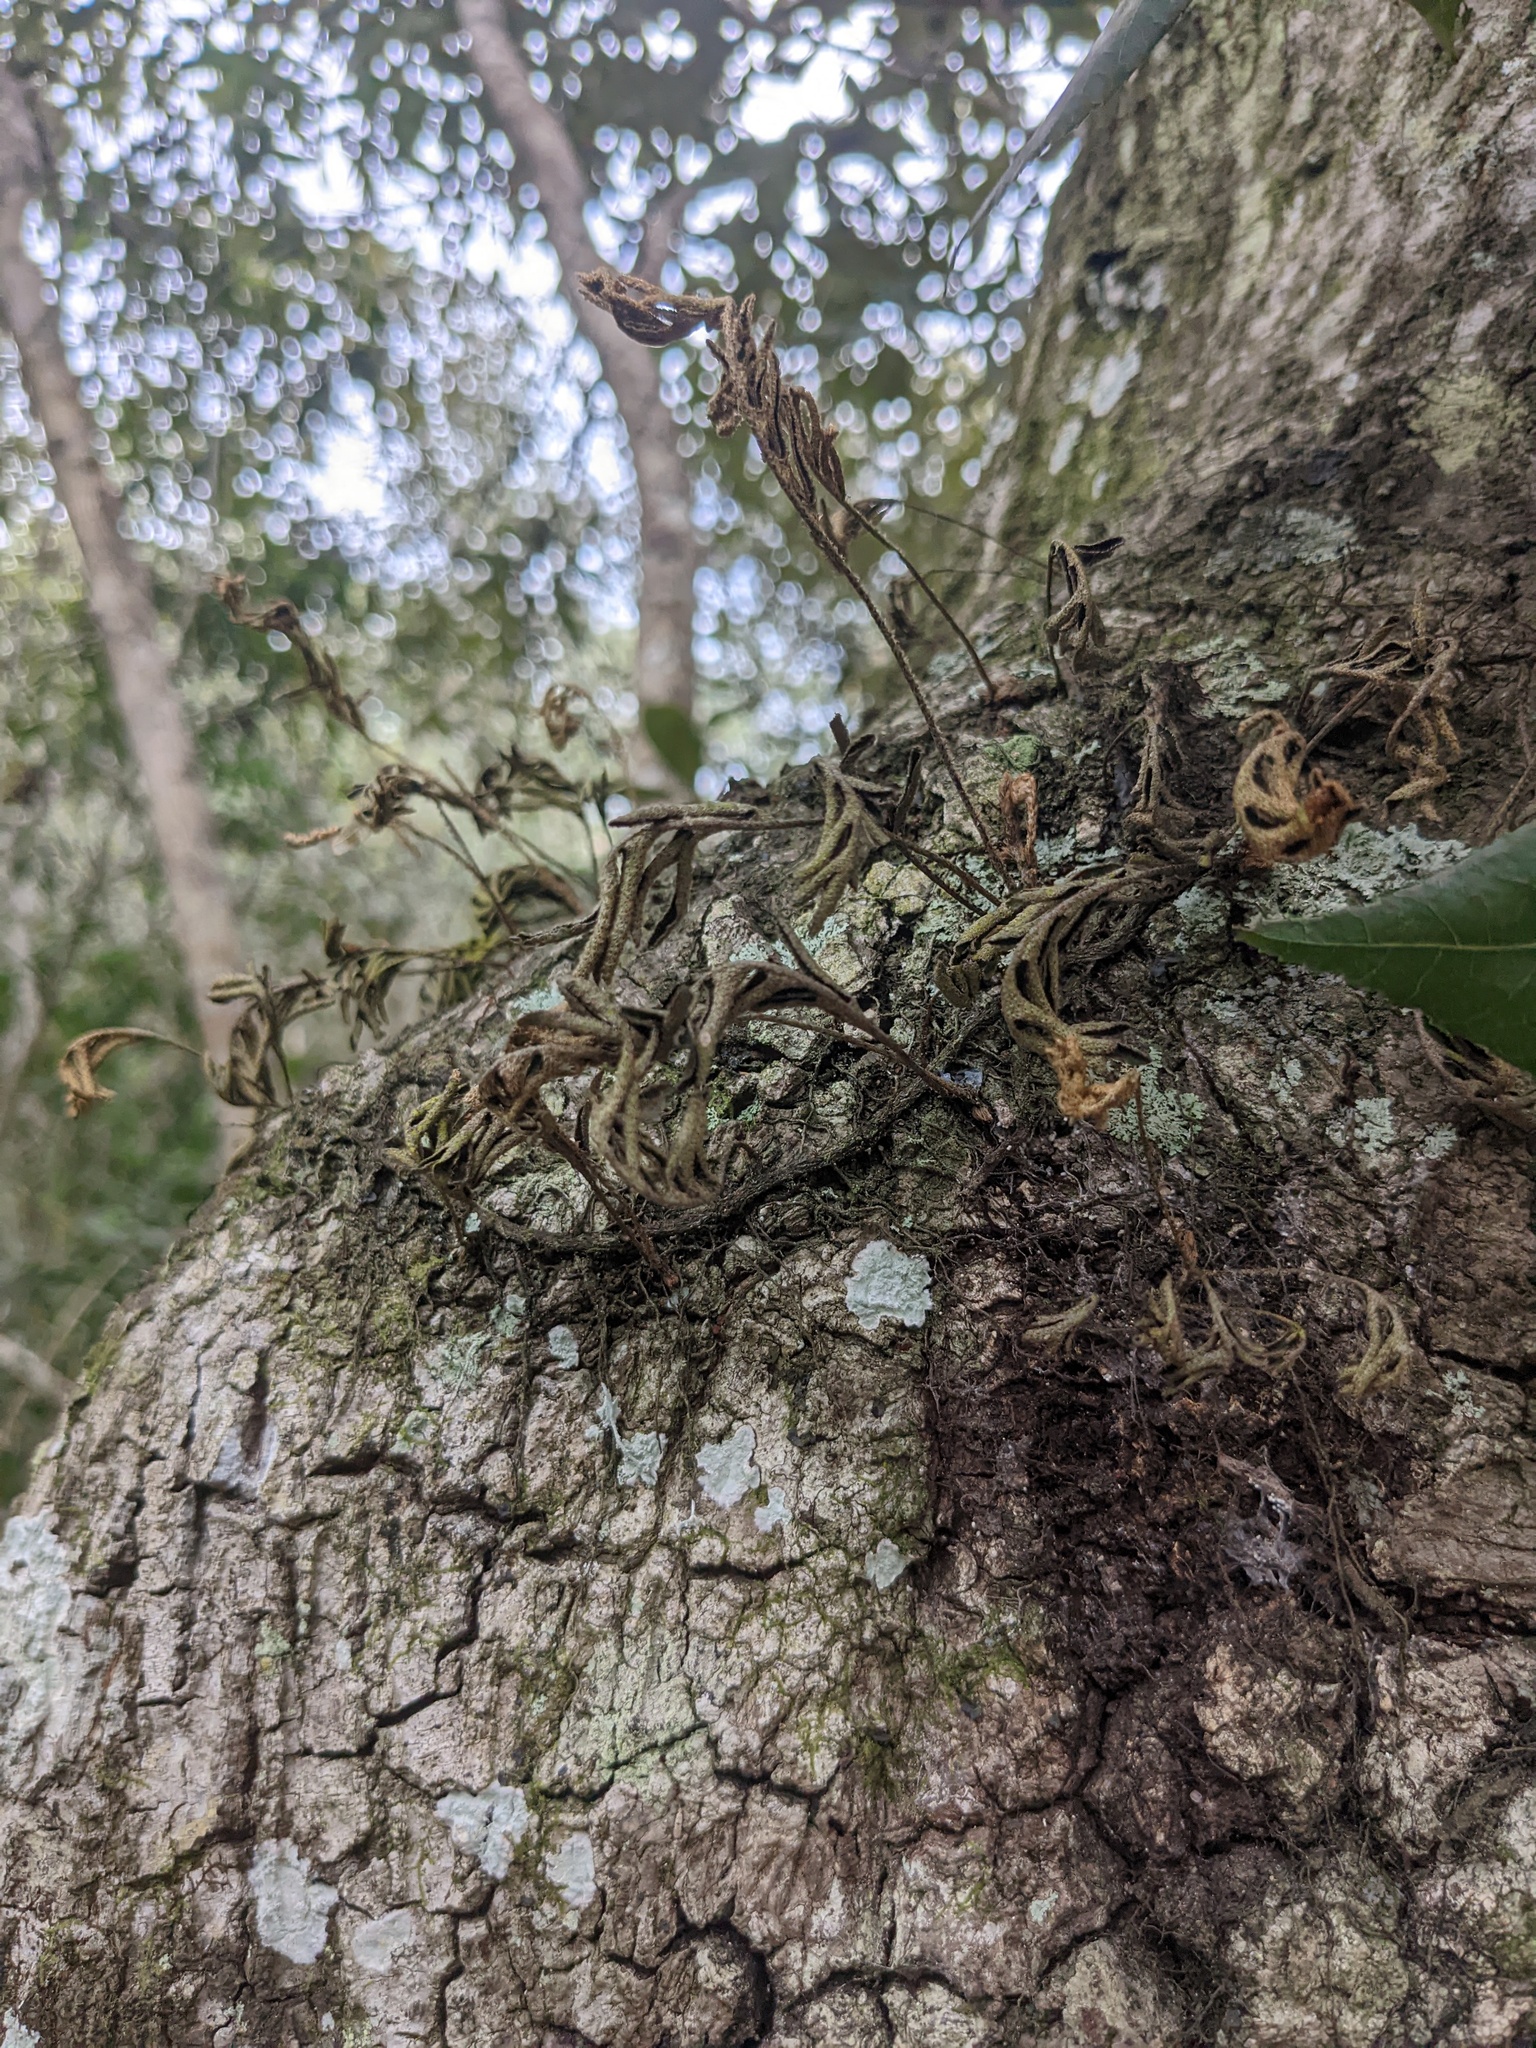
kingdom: Plantae
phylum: Tracheophyta
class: Polypodiopsida
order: Polypodiales
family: Polypodiaceae
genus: Pleopeltis
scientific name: Pleopeltis michauxiana
